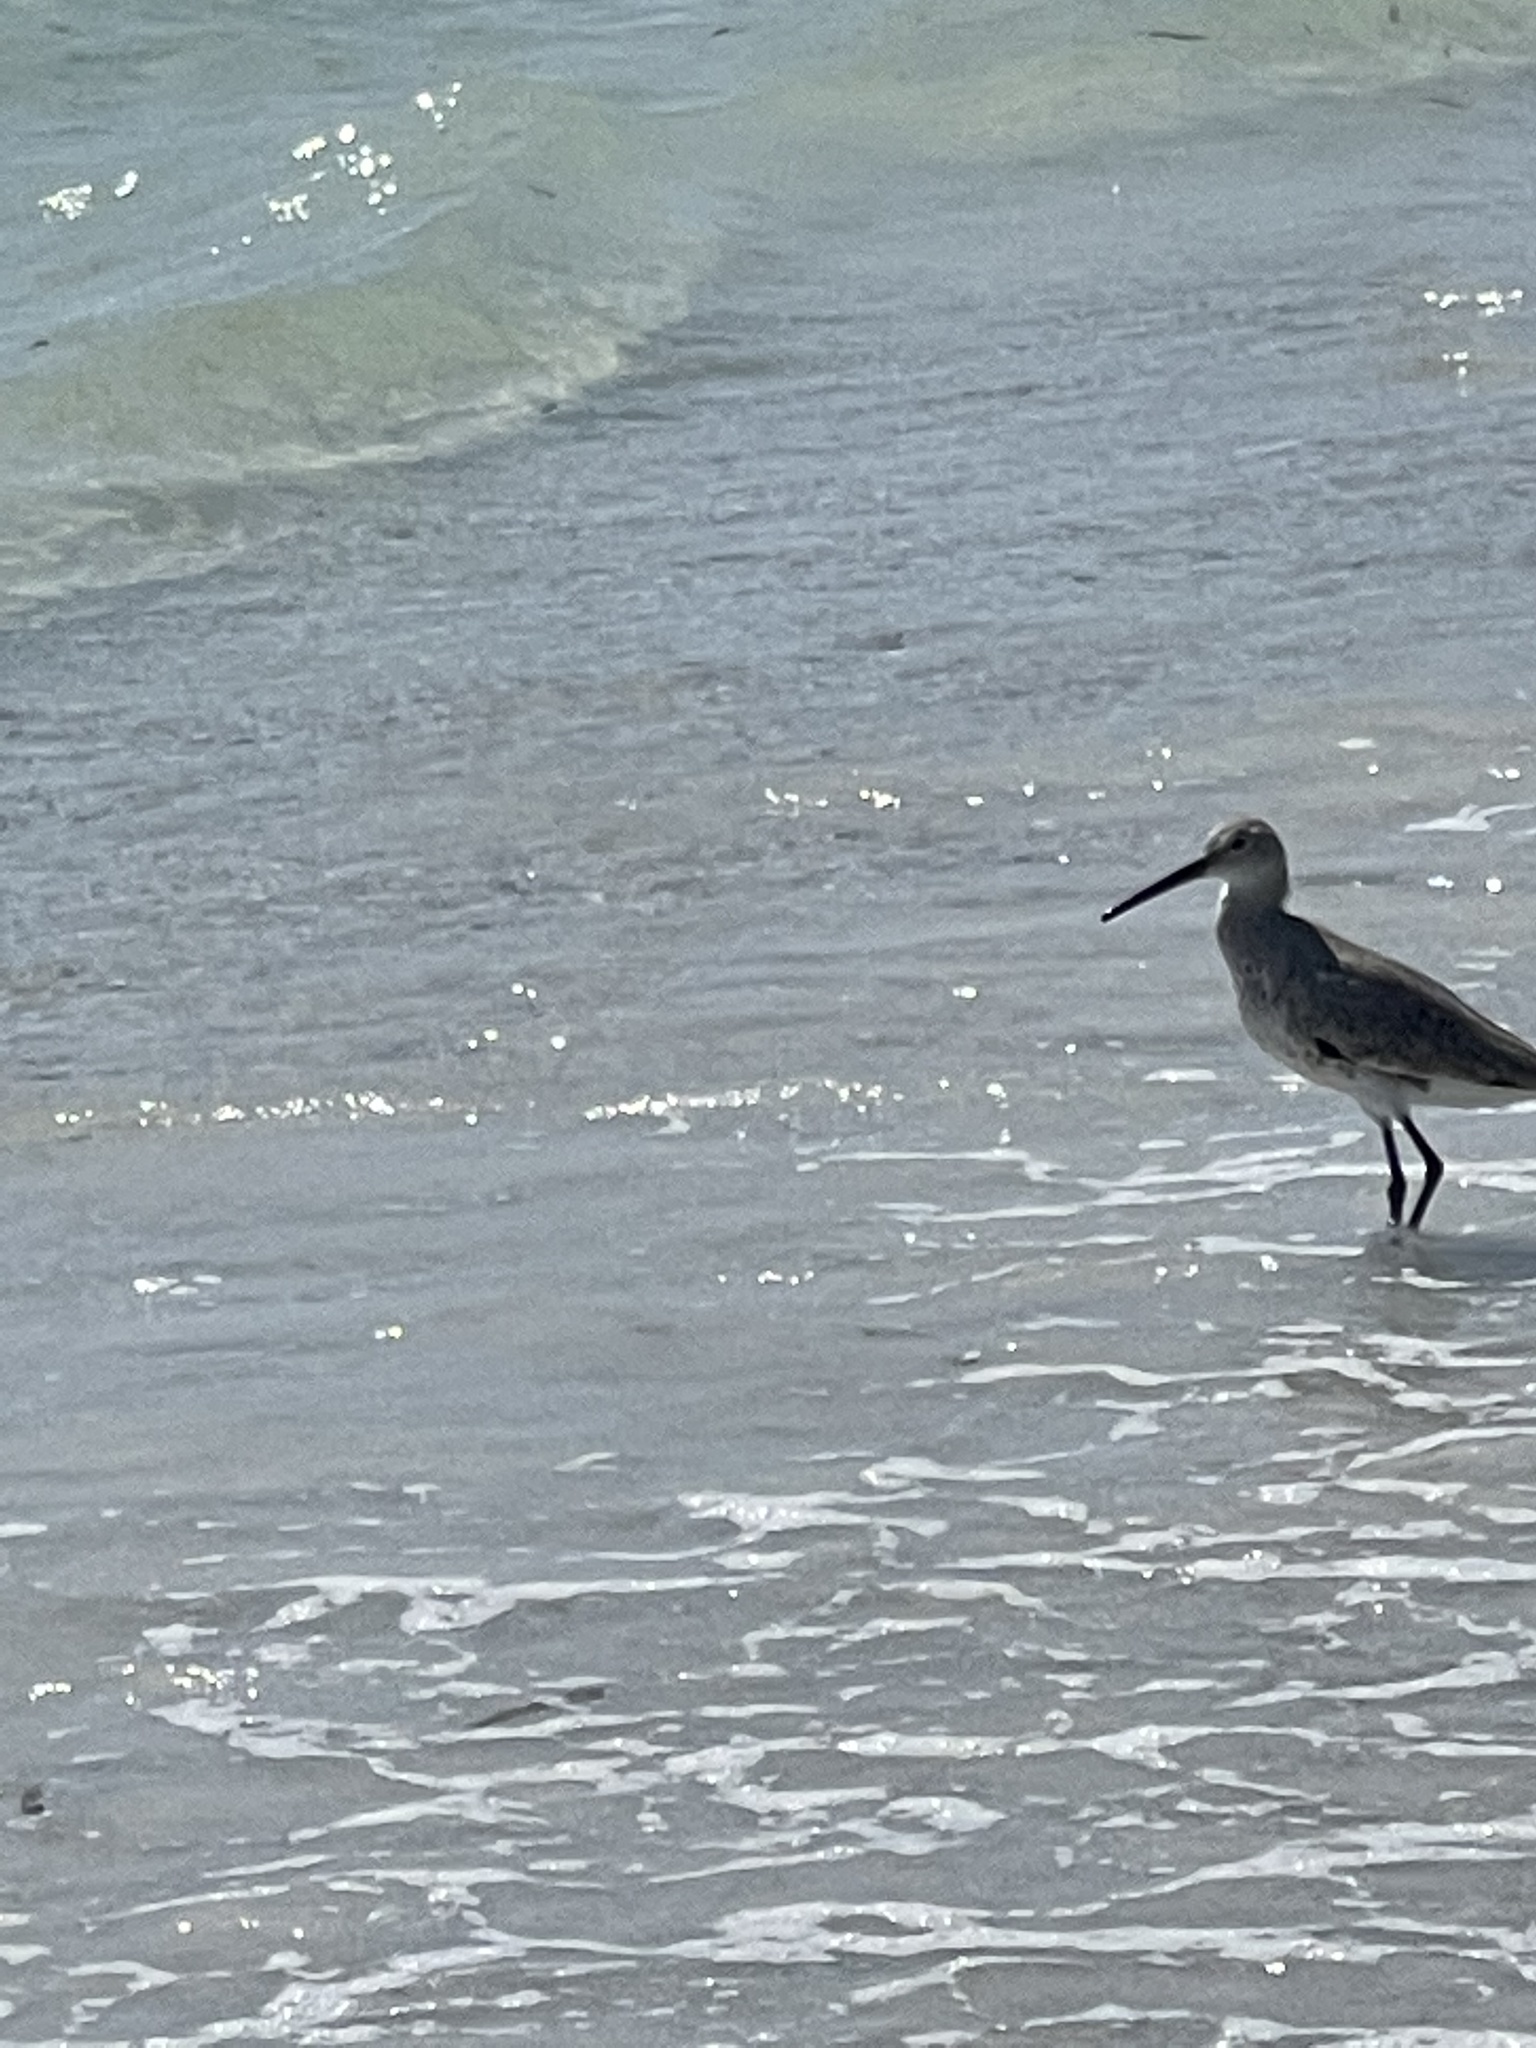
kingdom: Animalia
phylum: Chordata
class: Aves
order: Charadriiformes
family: Scolopacidae
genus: Tringa
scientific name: Tringa semipalmata
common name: Willet
